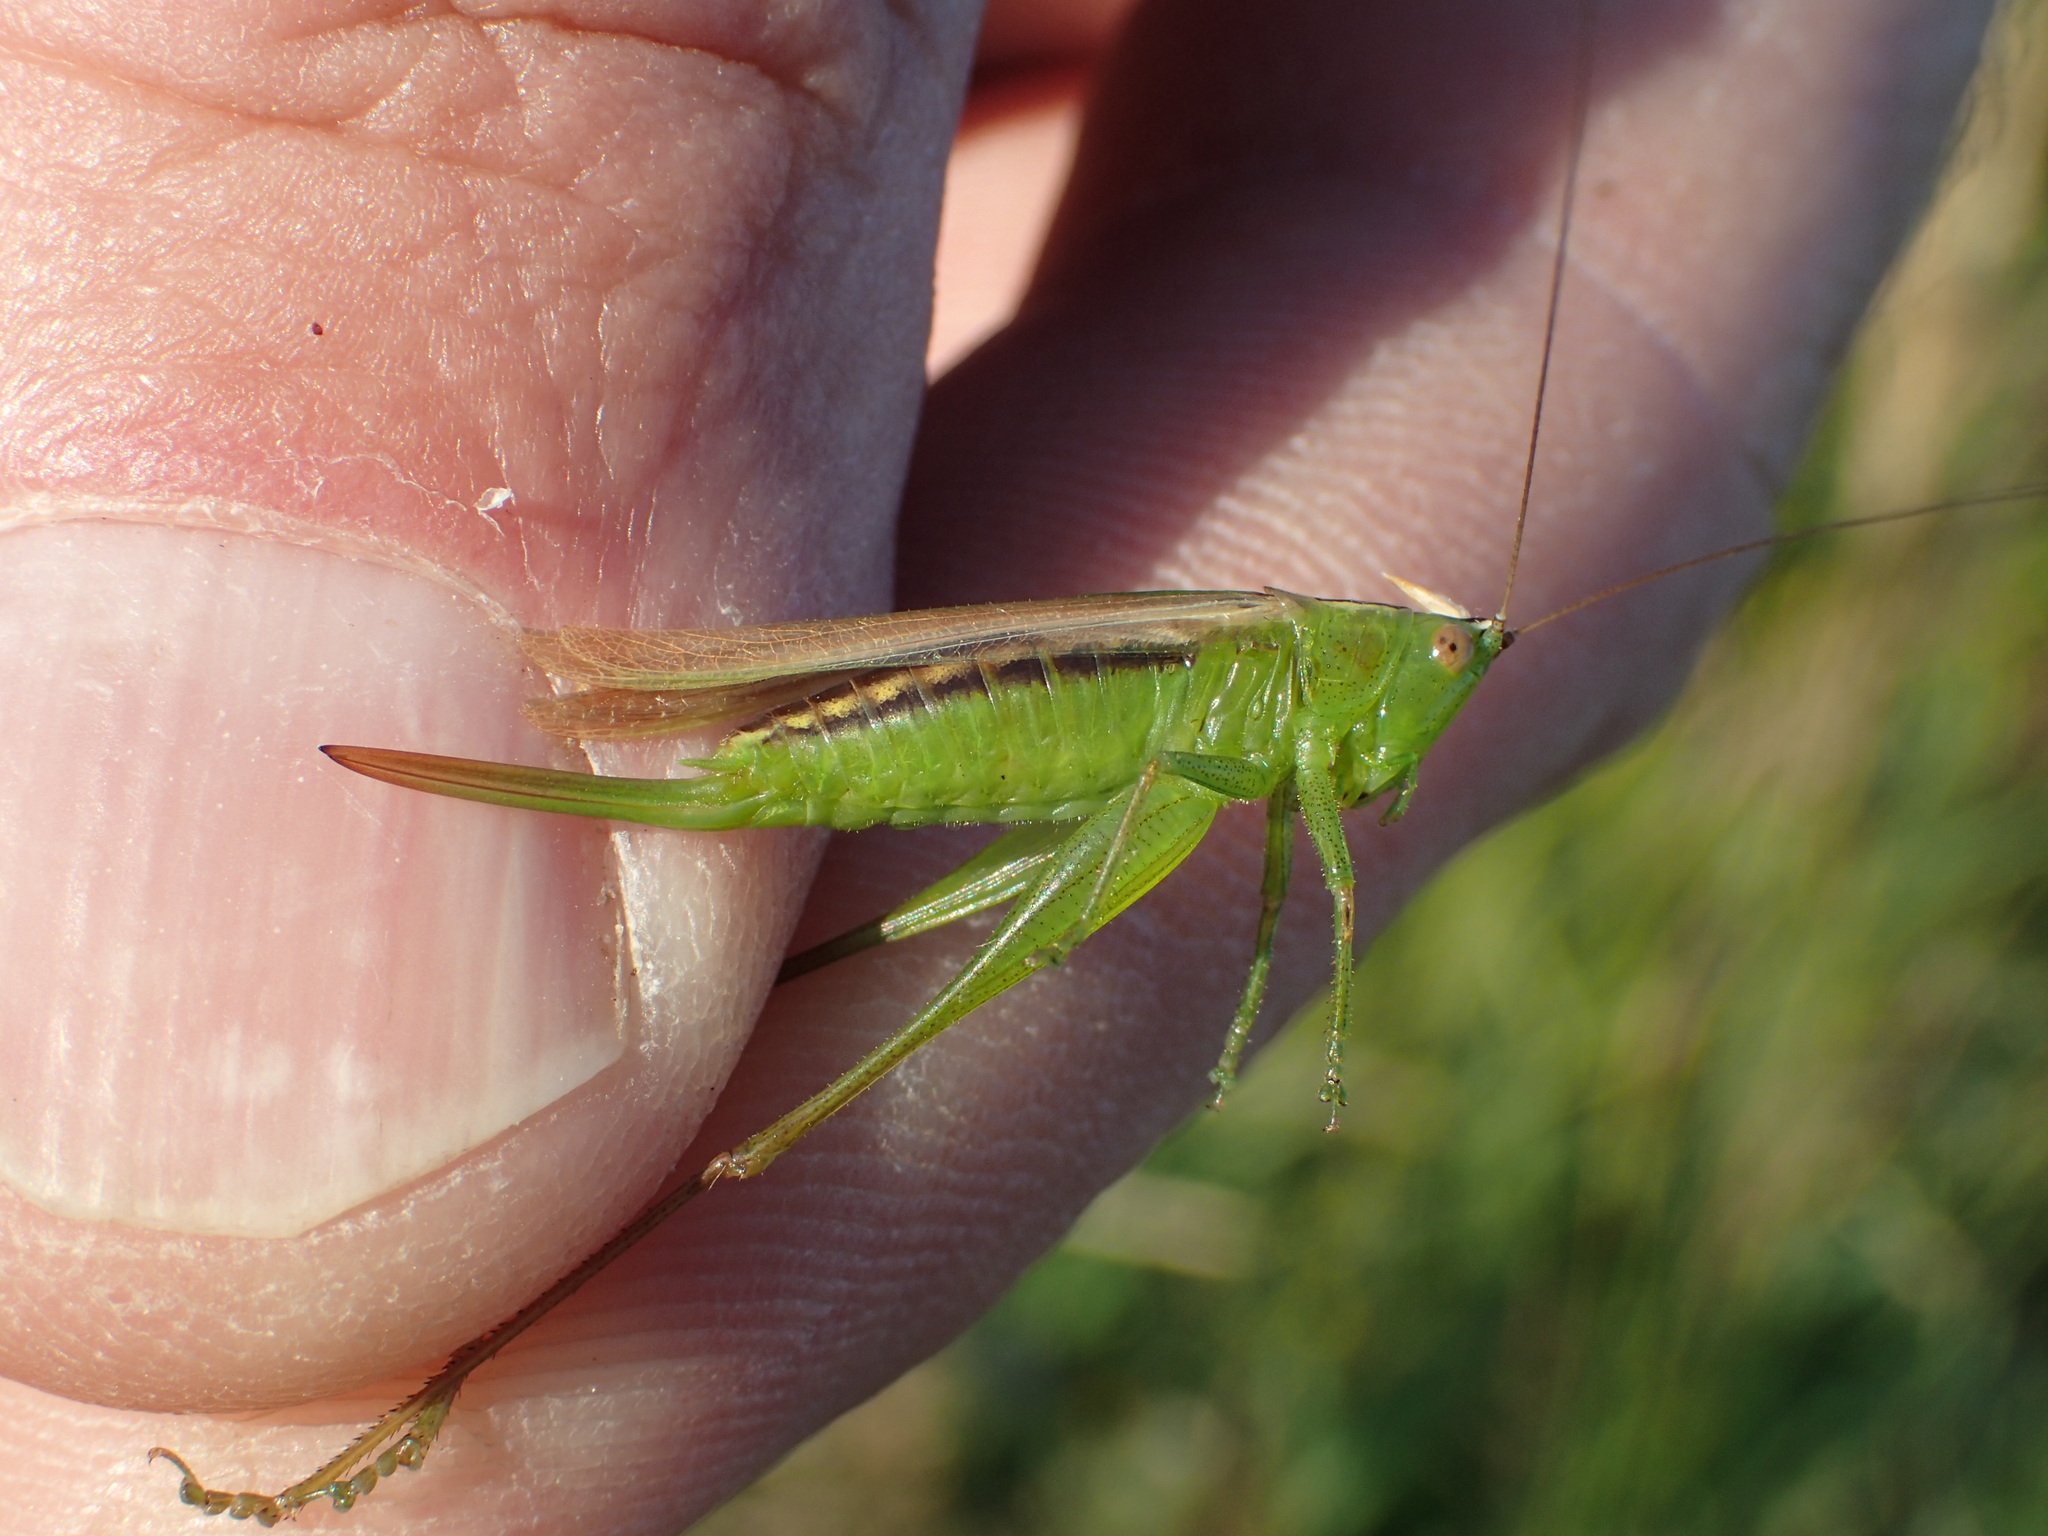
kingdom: Animalia
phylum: Arthropoda
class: Insecta
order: Orthoptera
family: Tettigoniidae
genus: Conocephalus
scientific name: Conocephalus fasciatus
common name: Slender meadow katydid
